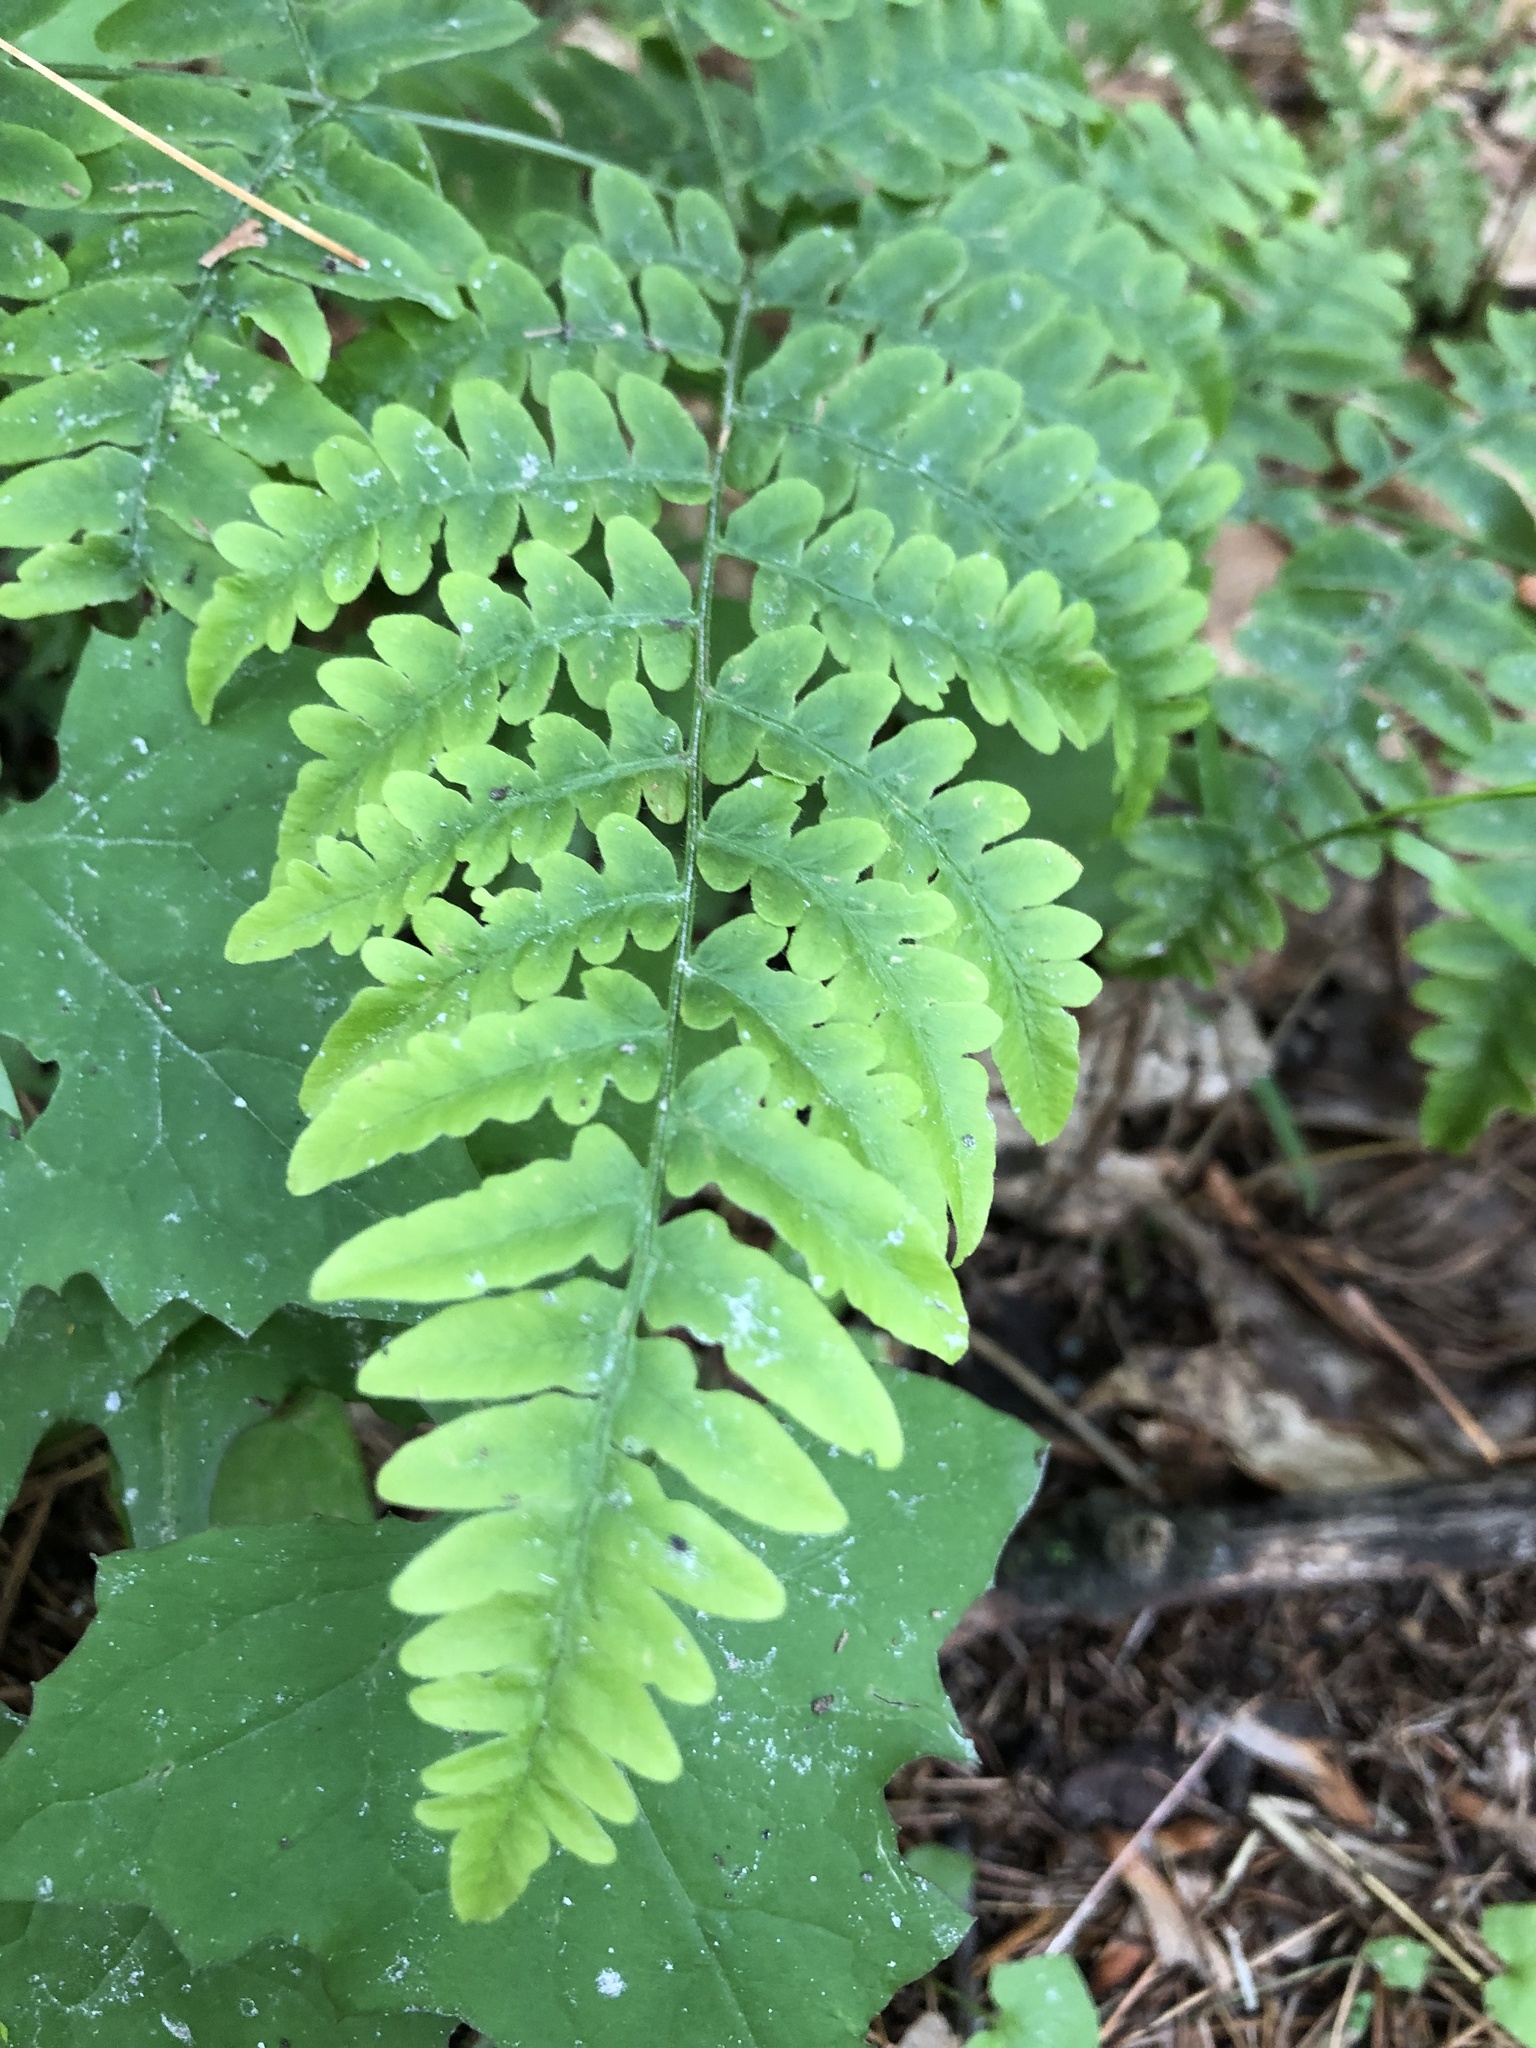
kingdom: Plantae
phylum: Tracheophyta
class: Polypodiopsida
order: Polypodiales
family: Dennstaedtiaceae
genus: Pteridium
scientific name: Pteridium aquilinum
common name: Bracken
